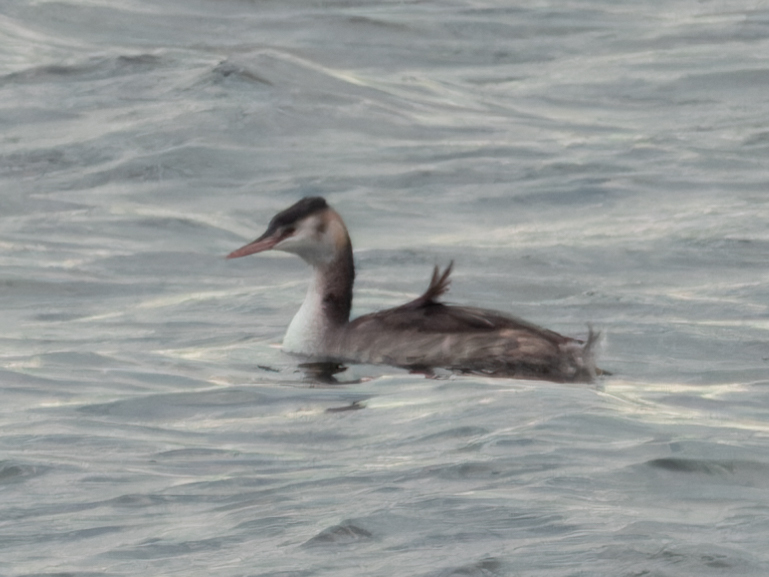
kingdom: Animalia
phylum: Chordata
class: Aves
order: Podicipediformes
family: Podicipedidae
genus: Podiceps
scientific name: Podiceps cristatus
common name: Great crested grebe
